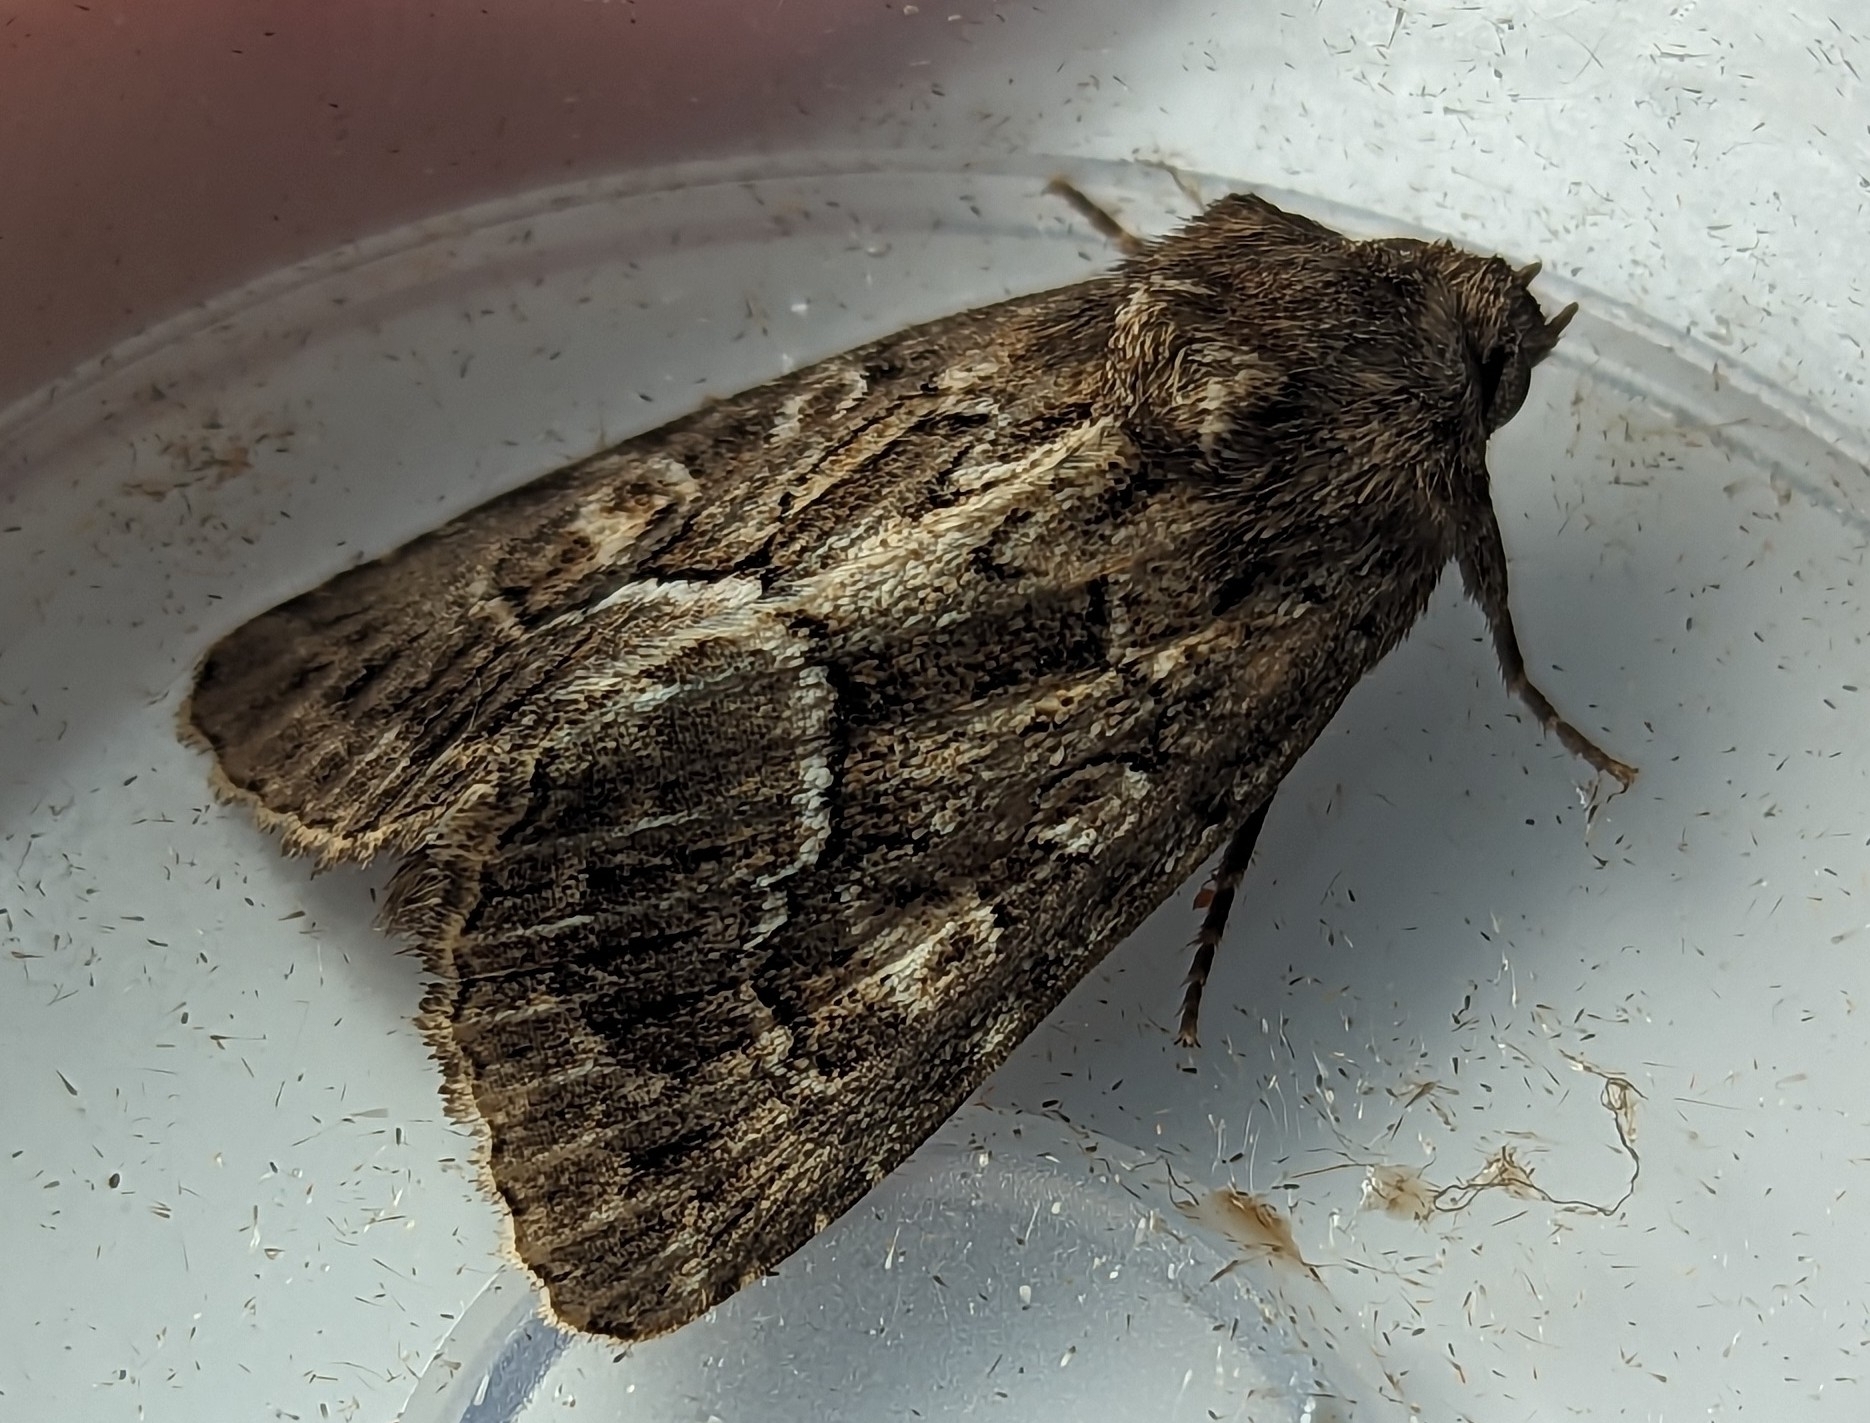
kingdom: Animalia
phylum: Arthropoda
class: Insecta
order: Lepidoptera
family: Noctuidae
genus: Thalpophila
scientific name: Thalpophila matura
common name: Straw underwing
